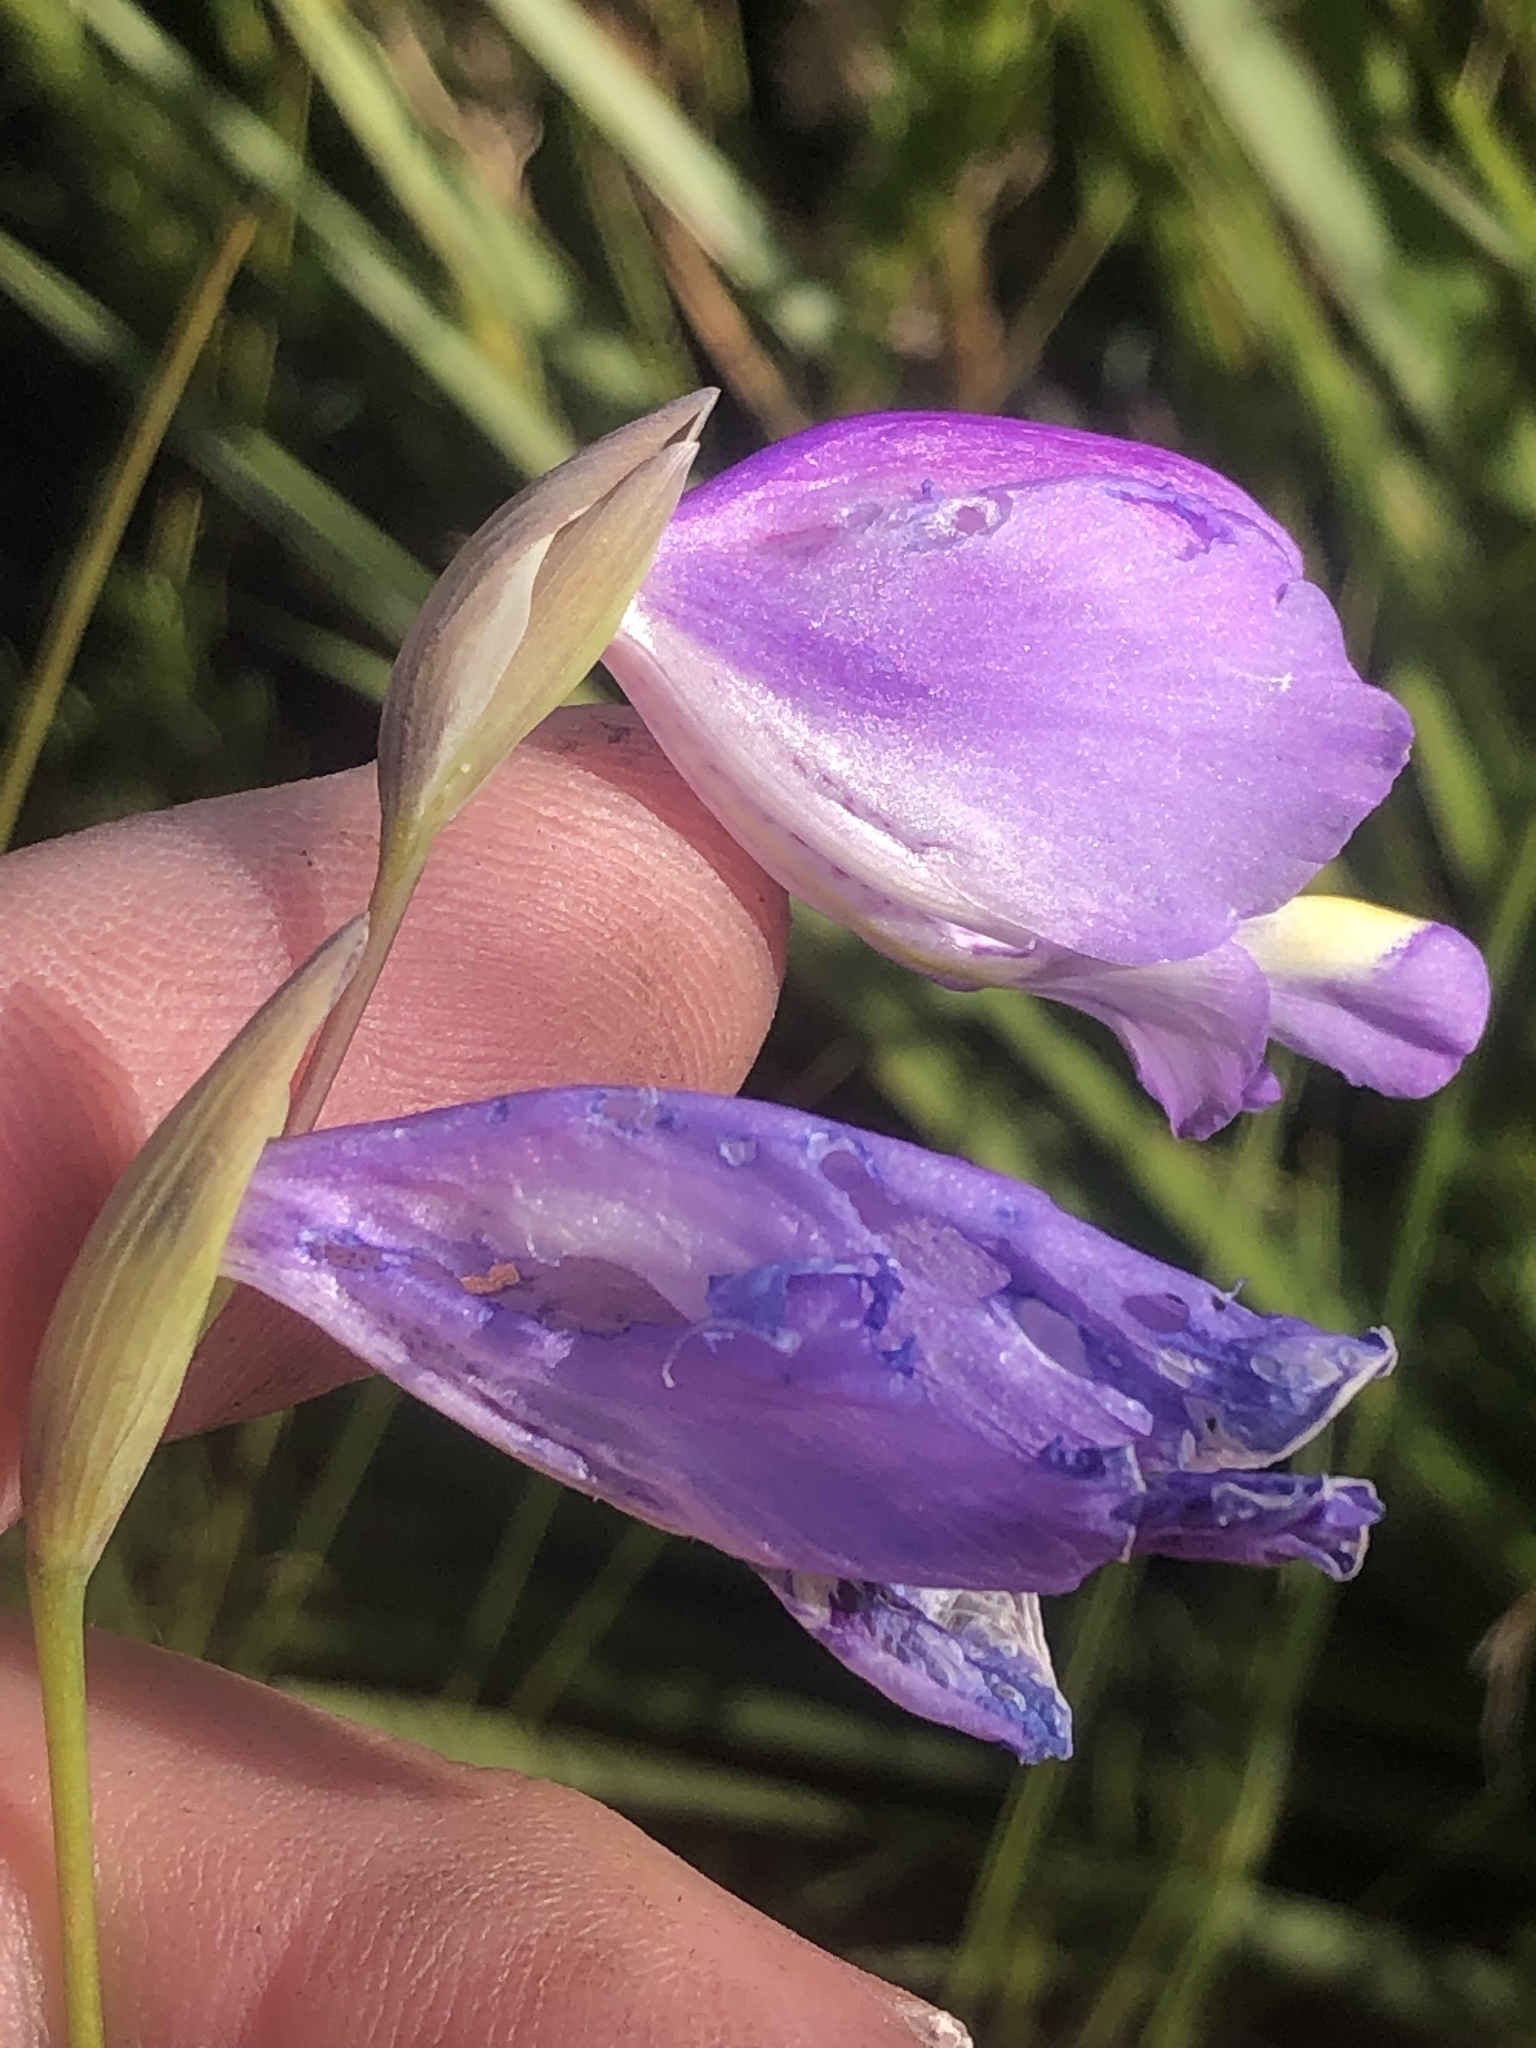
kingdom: Plantae
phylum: Tracheophyta
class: Liliopsida
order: Asparagales
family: Iridaceae
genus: Gladiolus
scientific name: Gladiolus rogersii
